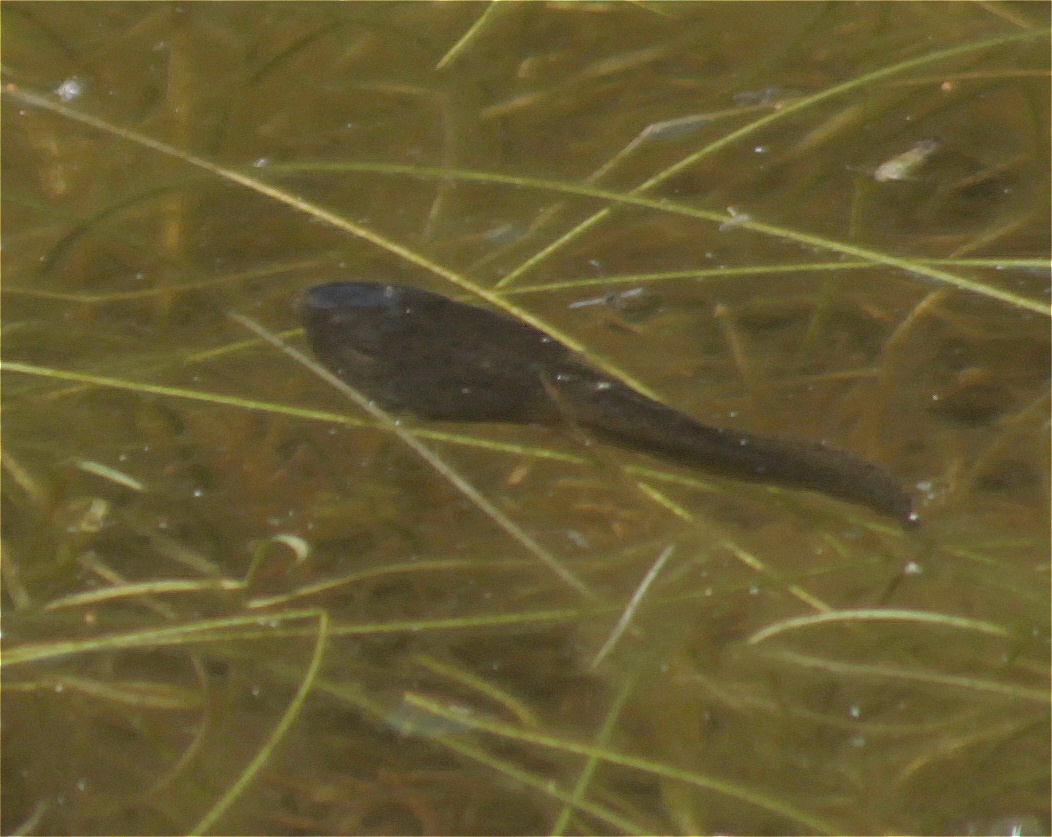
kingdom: Animalia
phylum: Chordata
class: Amphibia
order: Anura
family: Hylidae
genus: Dendropsophus
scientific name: Dendropsophus molitor
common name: Green dotted treefrog
